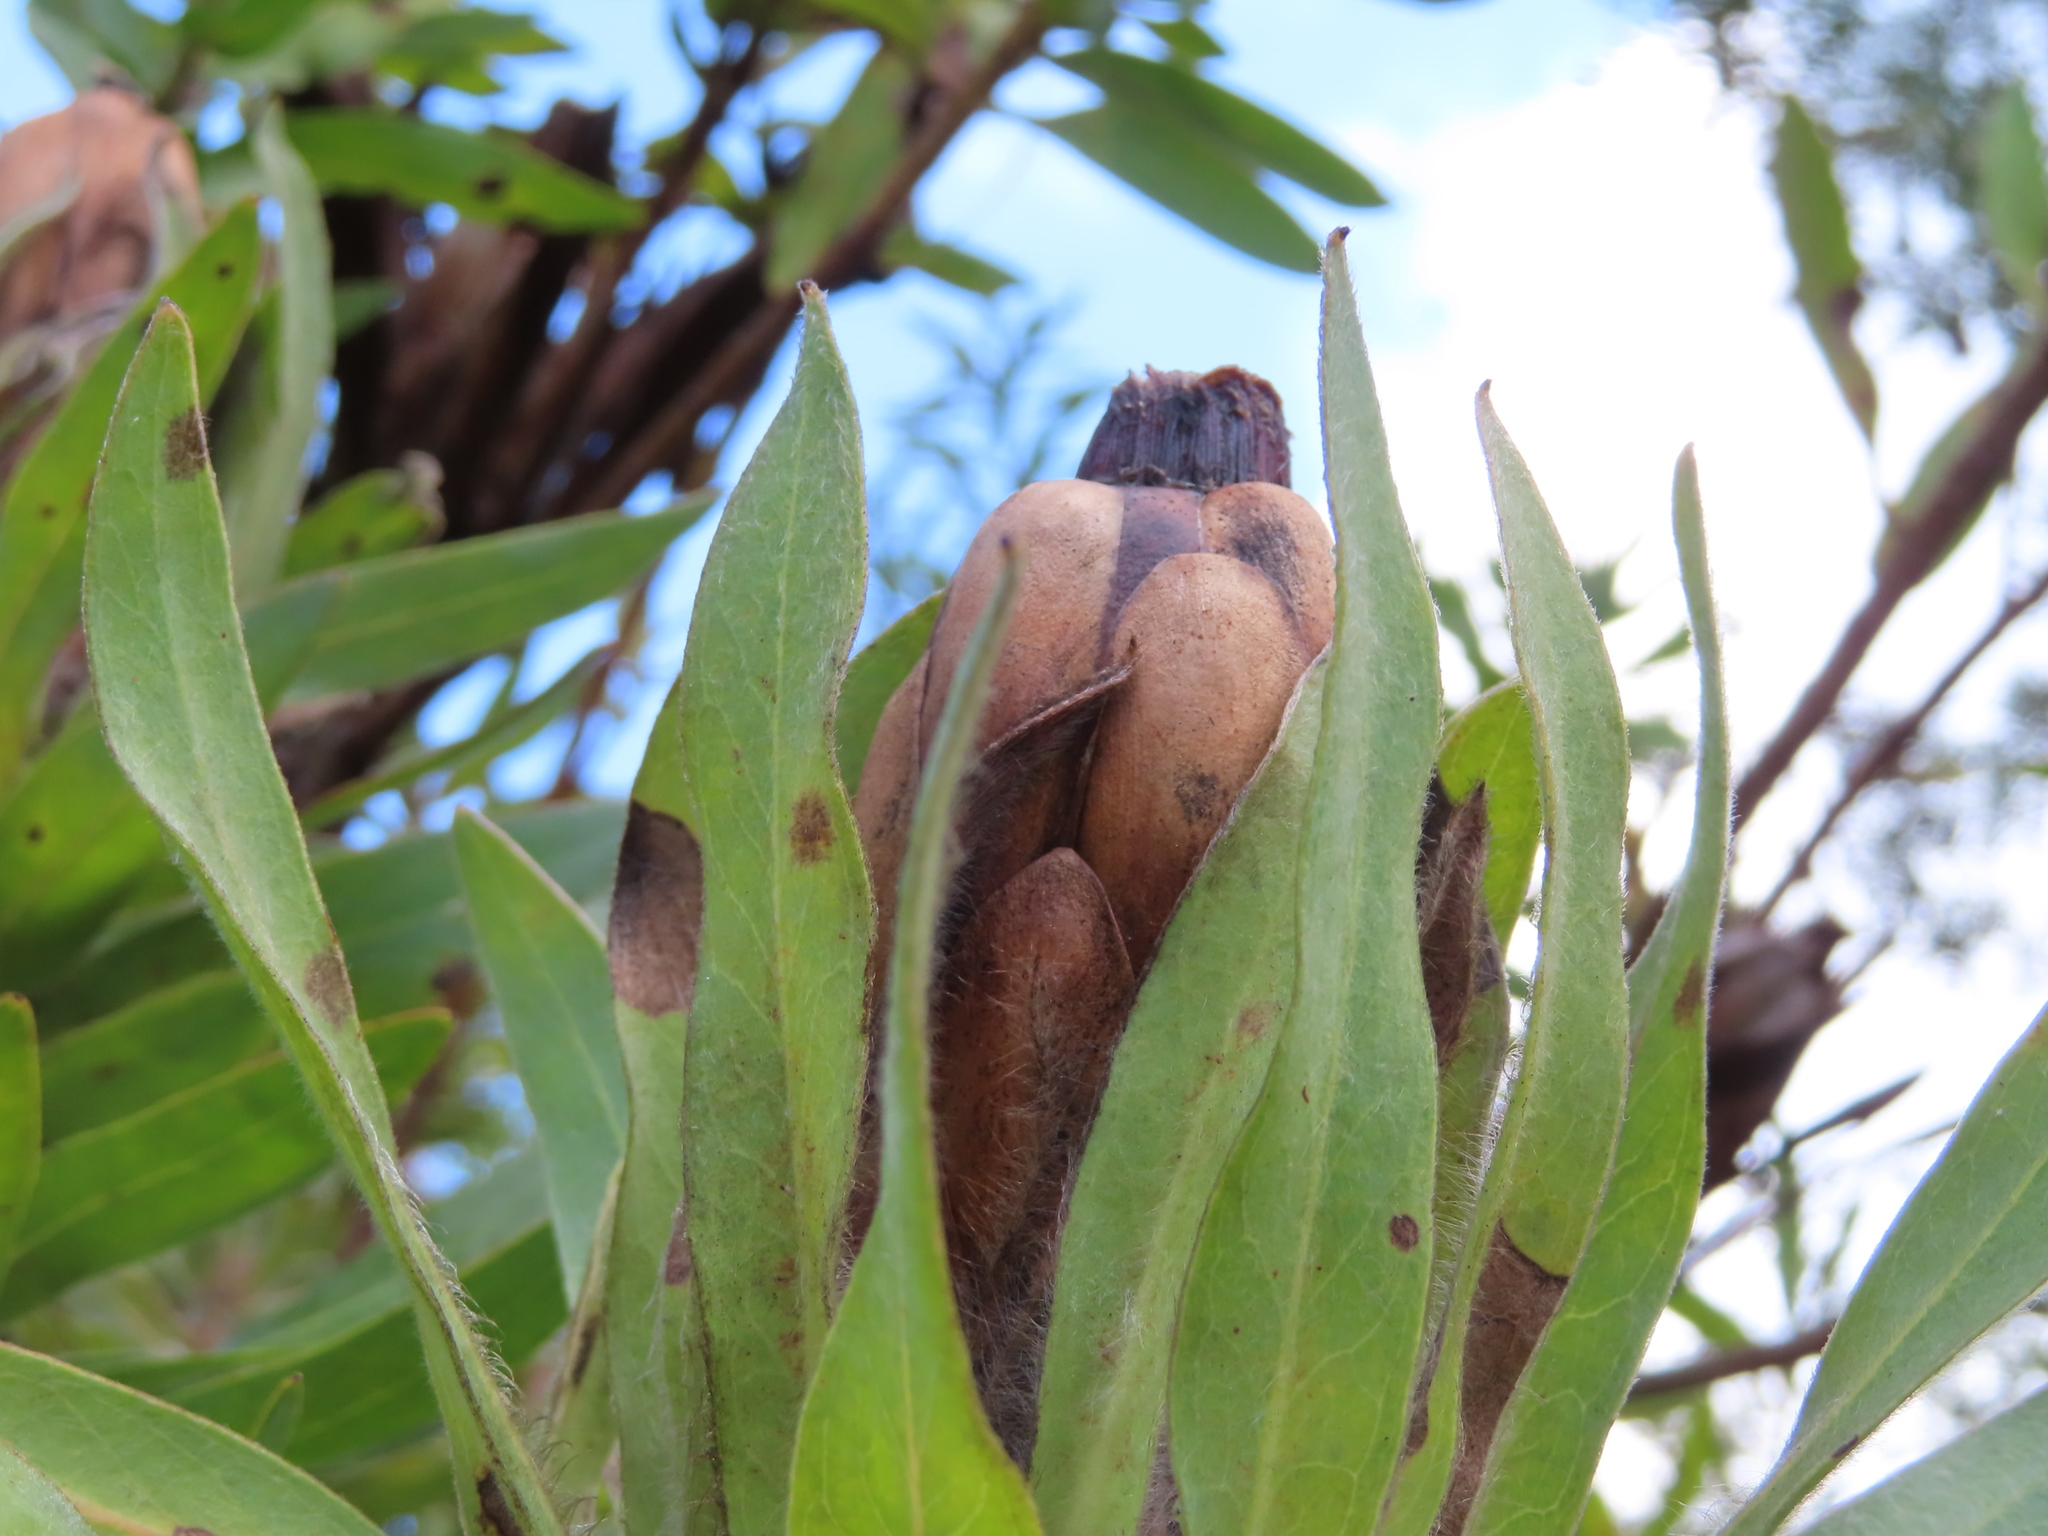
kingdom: Plantae
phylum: Tracheophyta
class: Magnoliopsida
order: Proteales
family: Proteaceae
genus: Protea
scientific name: Protea coronata
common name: Green sugarbush
